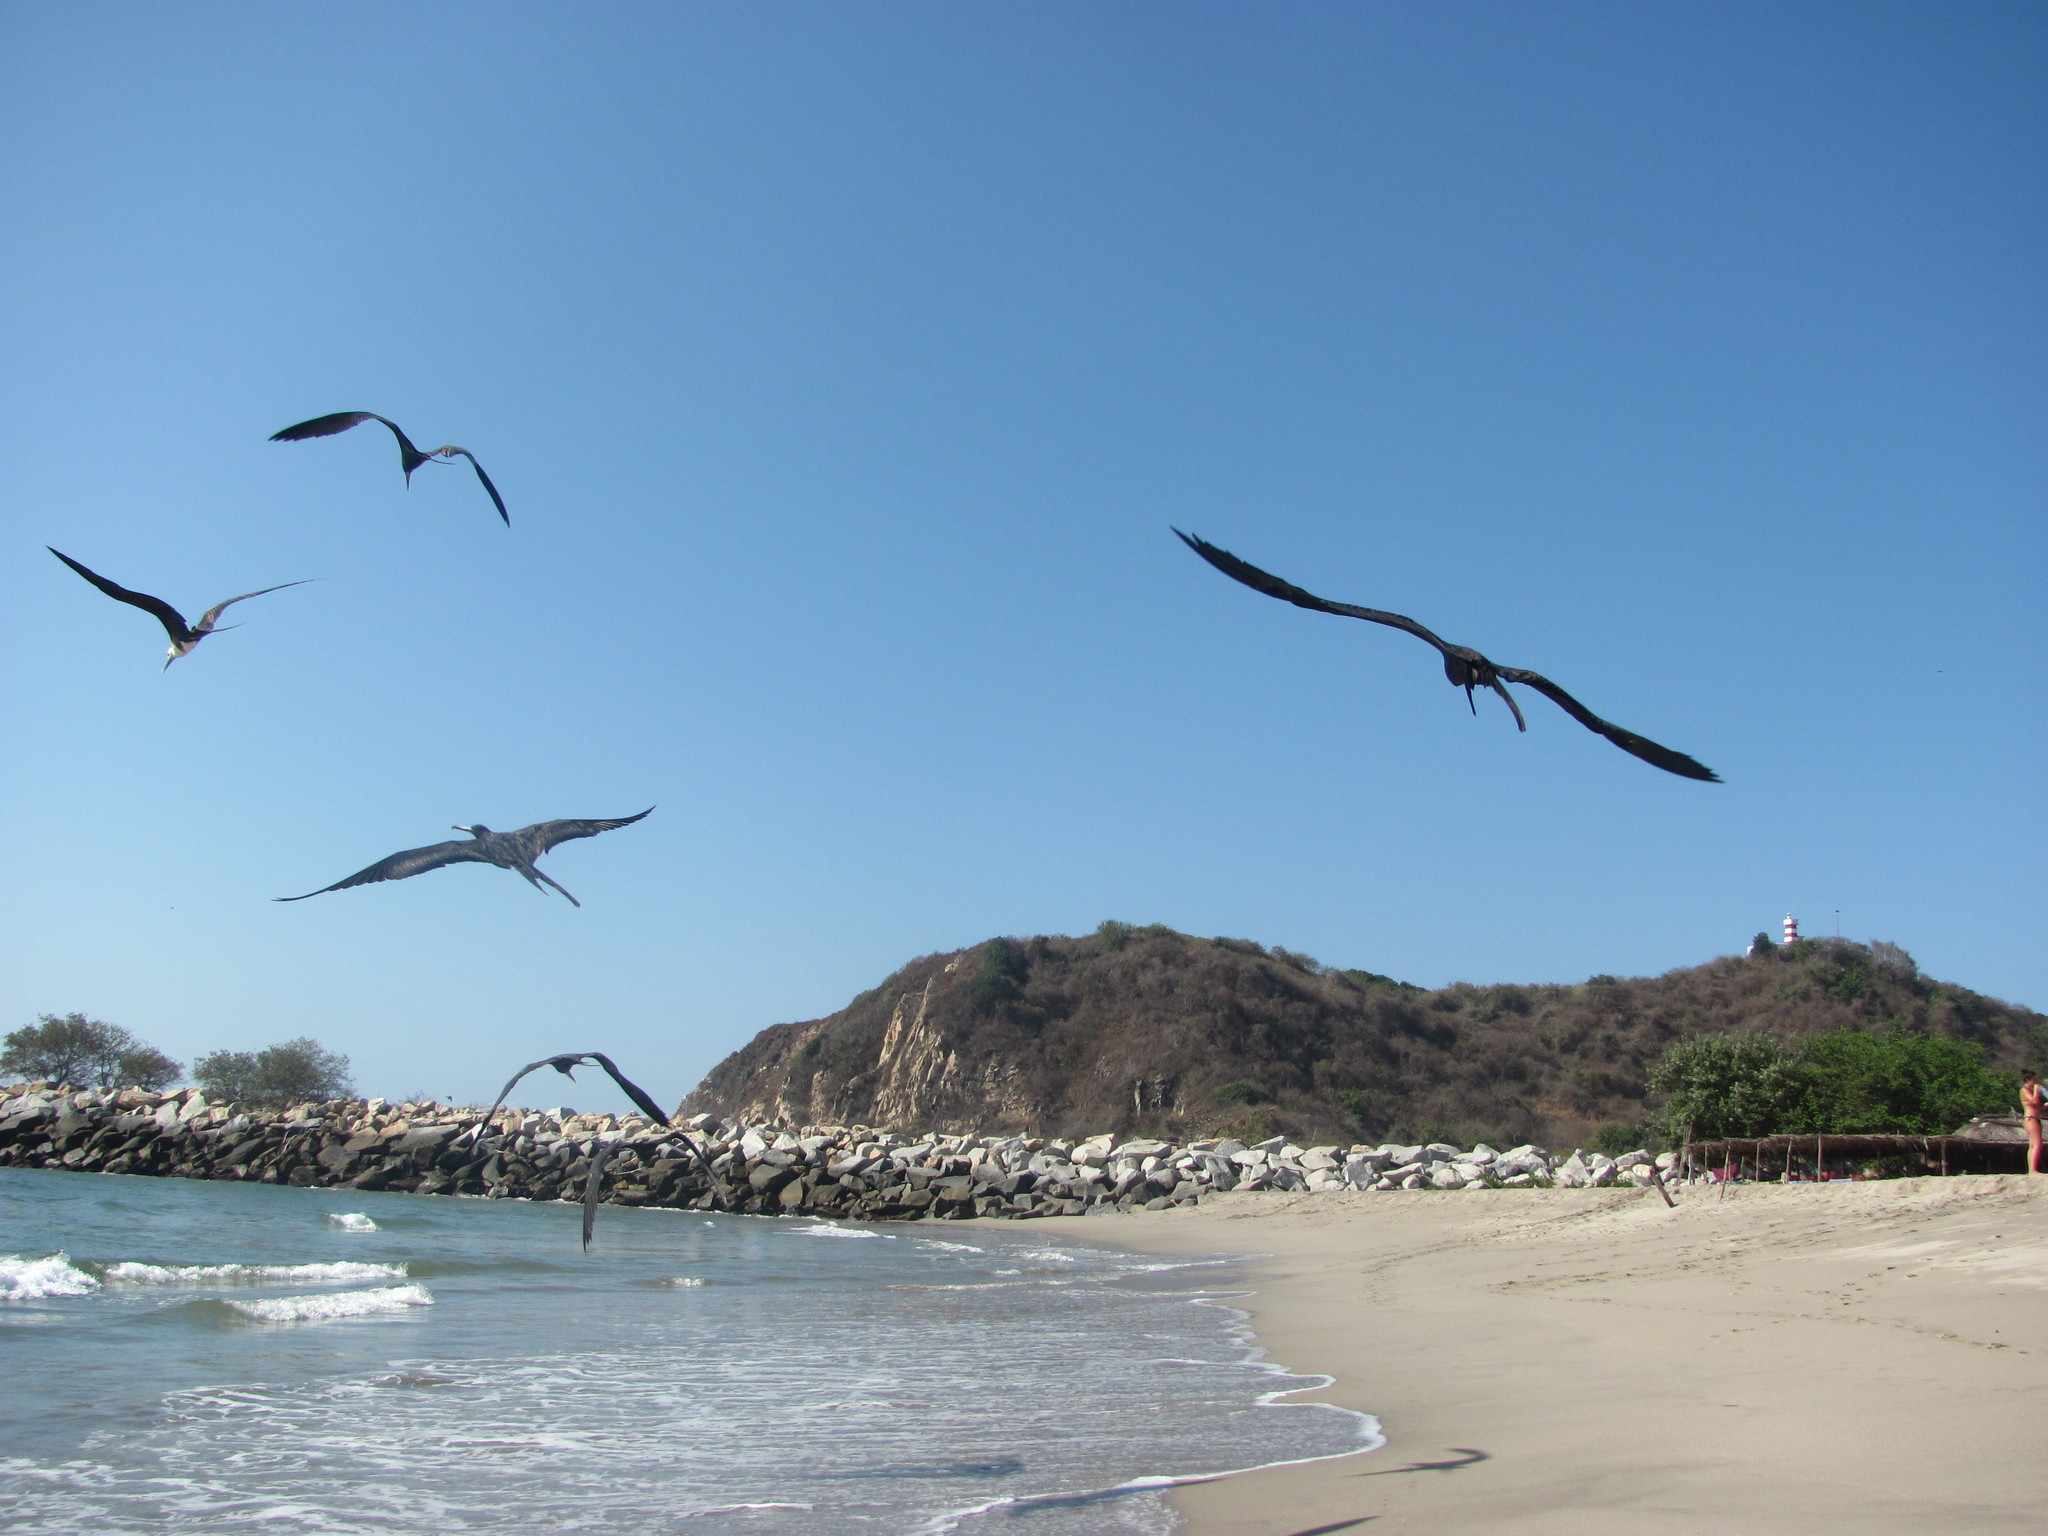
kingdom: Animalia
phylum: Chordata
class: Aves
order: Suliformes
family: Fregatidae
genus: Fregata
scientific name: Fregata magnificens
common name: Magnificent frigatebird
